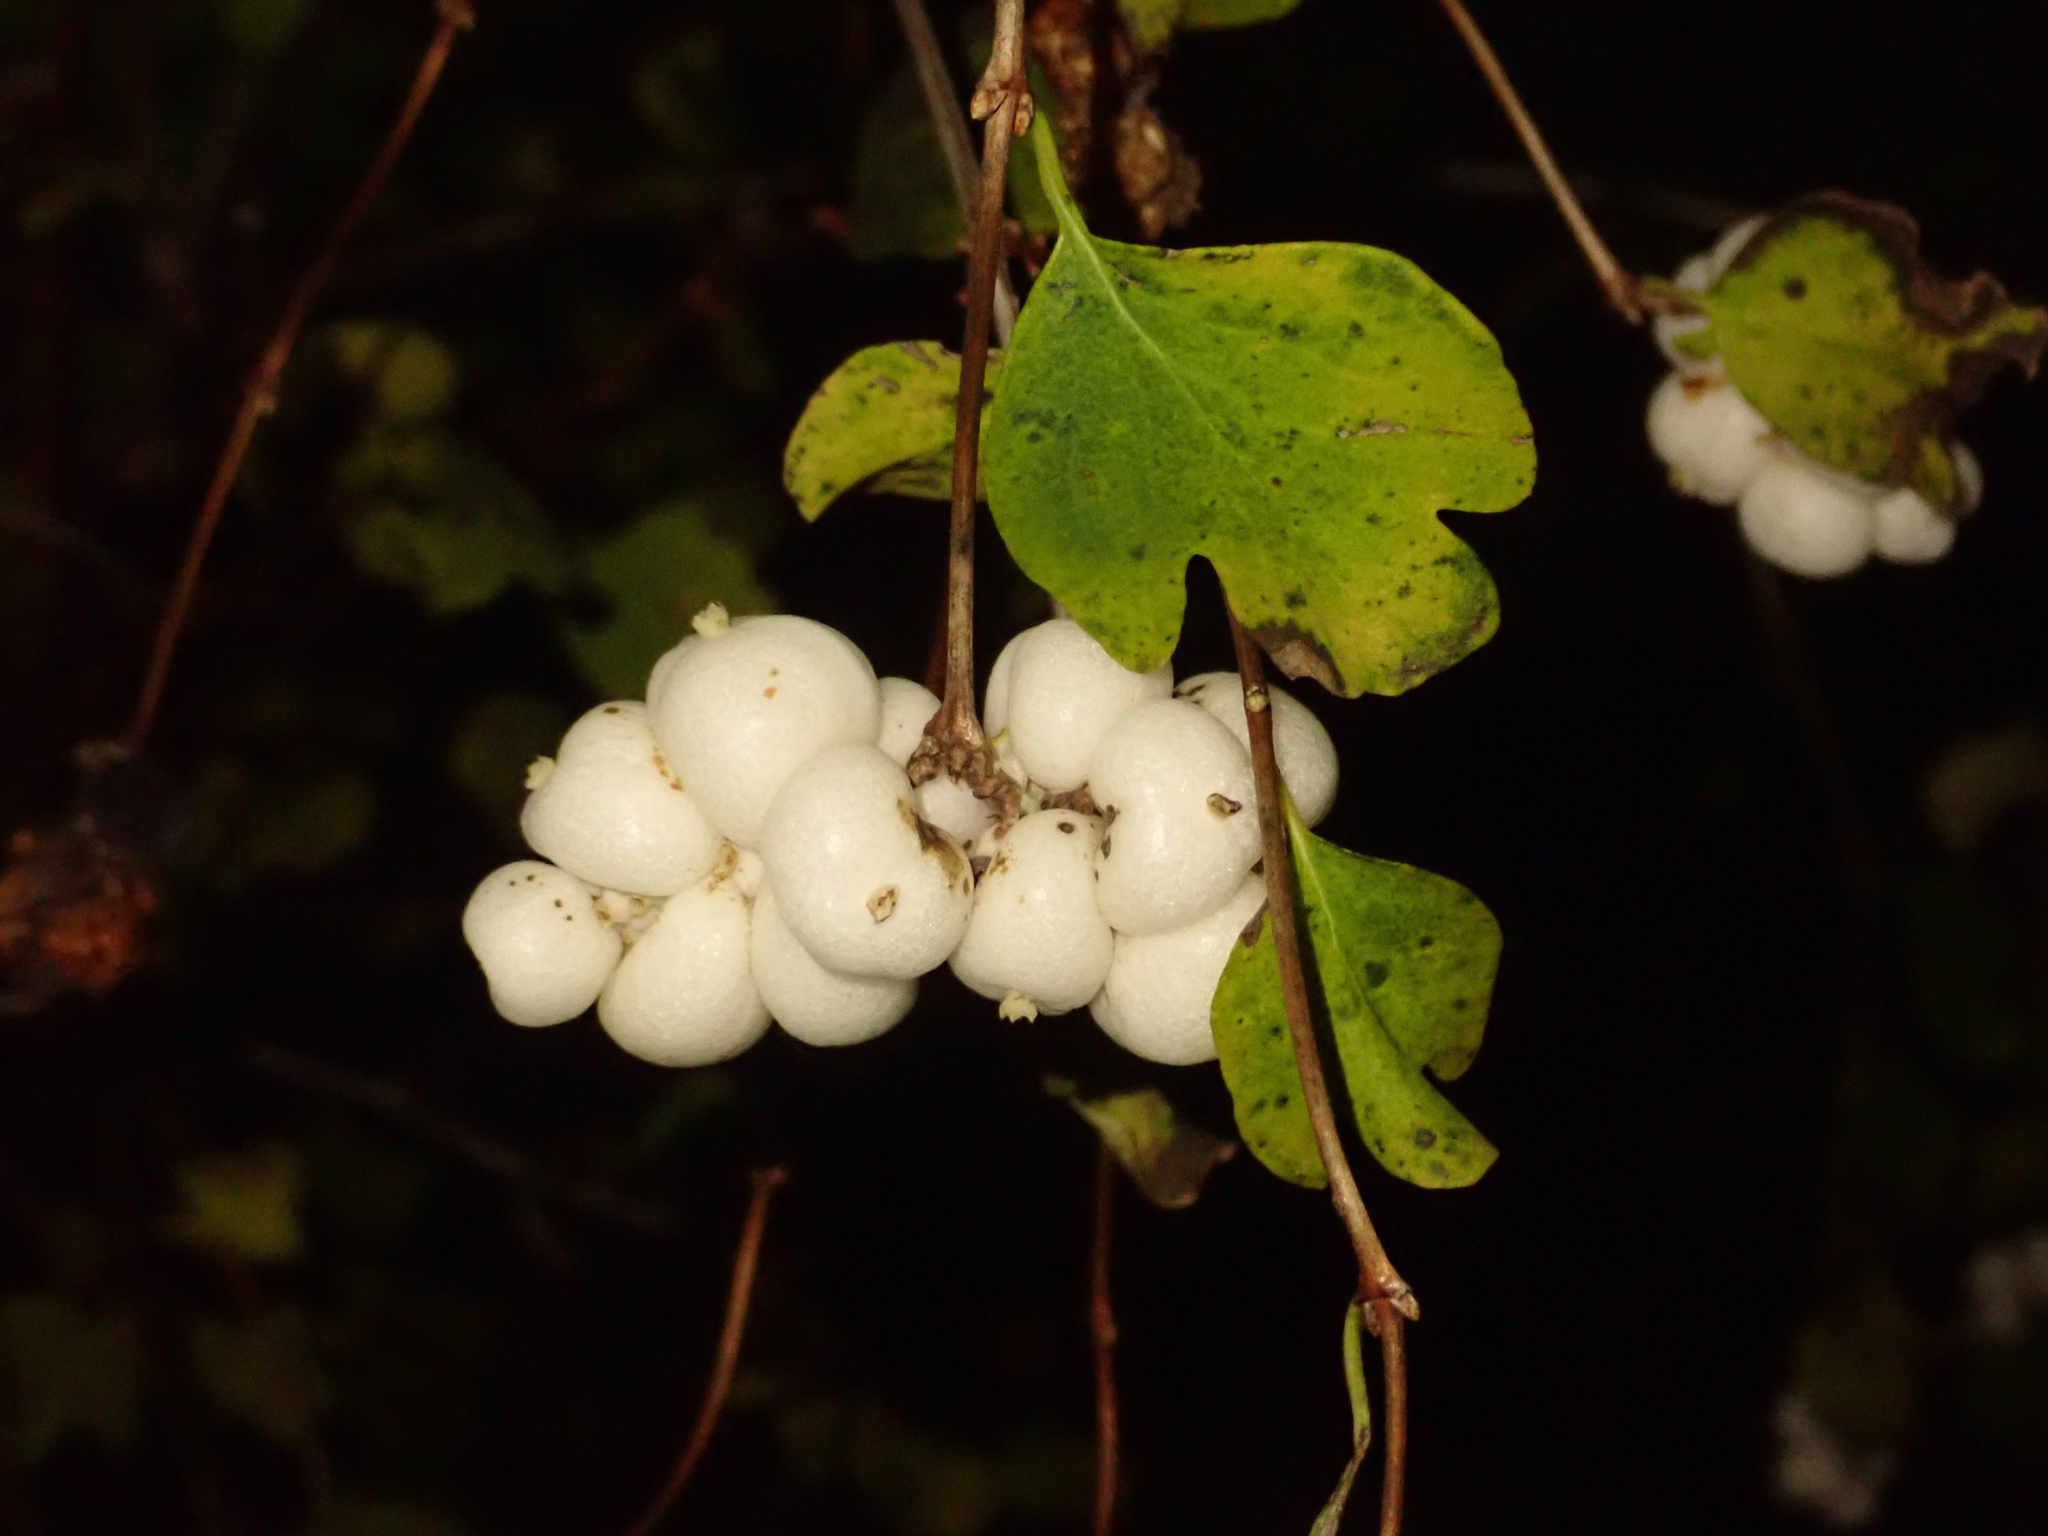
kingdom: Plantae
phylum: Tracheophyta
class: Magnoliopsida
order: Dipsacales
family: Caprifoliaceae
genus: Symphoricarpos
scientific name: Symphoricarpos albus
